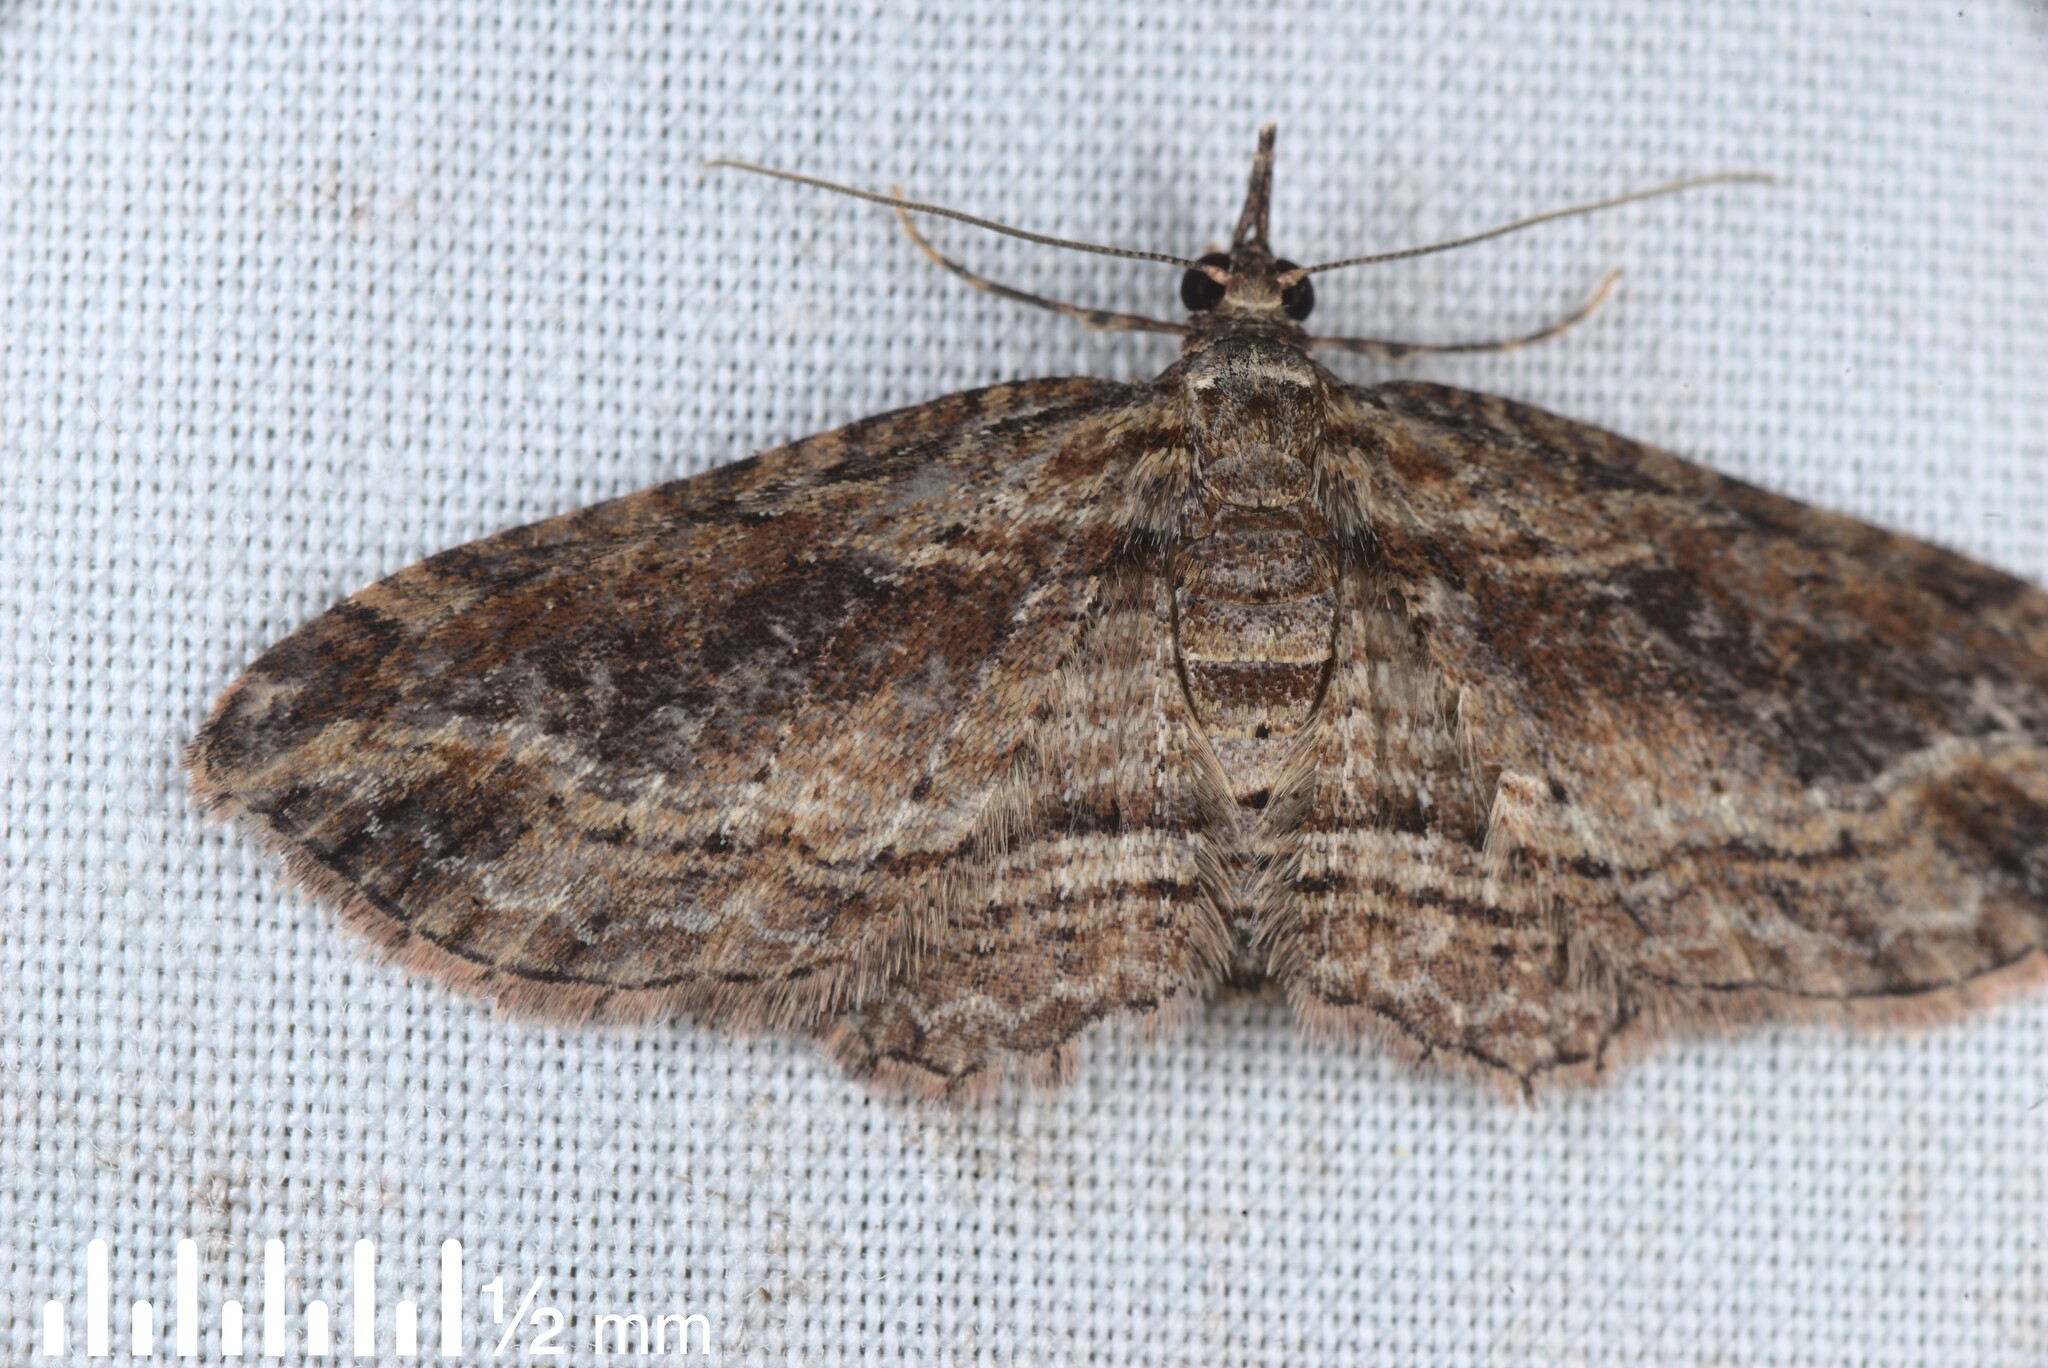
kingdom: Animalia
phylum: Arthropoda
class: Insecta
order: Lepidoptera
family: Geometridae
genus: Chloroclystis
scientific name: Chloroclystis filata
